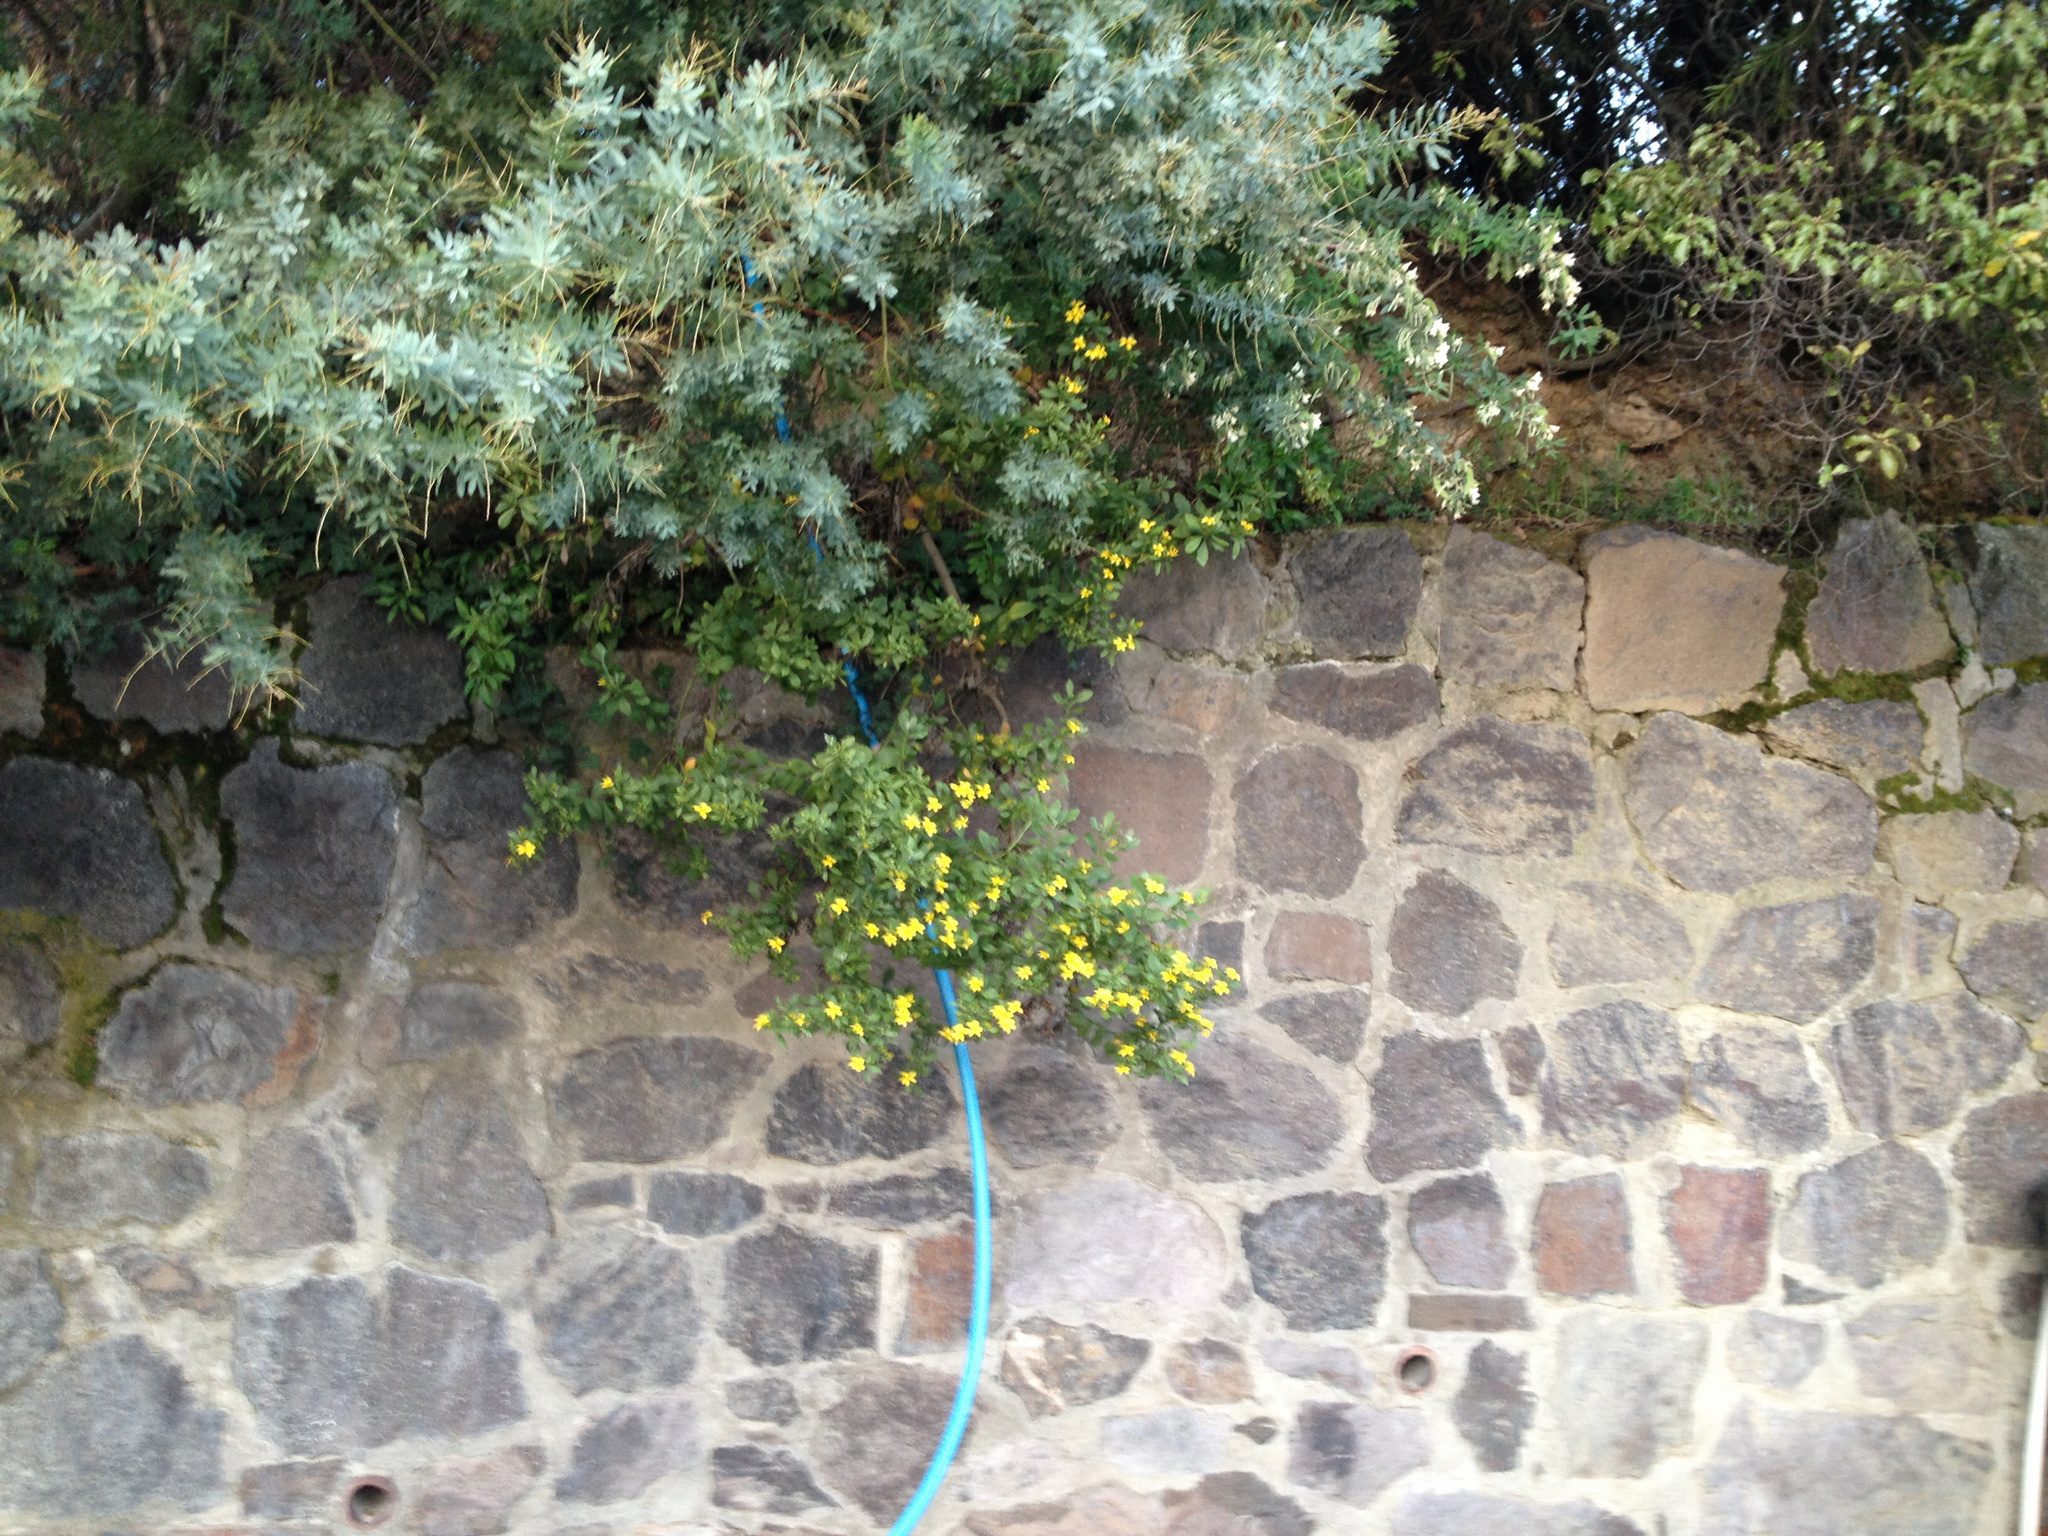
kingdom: Plantae
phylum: Tracheophyta
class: Magnoliopsida
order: Asterales
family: Asteraceae
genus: Osteospermum
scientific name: Osteospermum moniliferum
